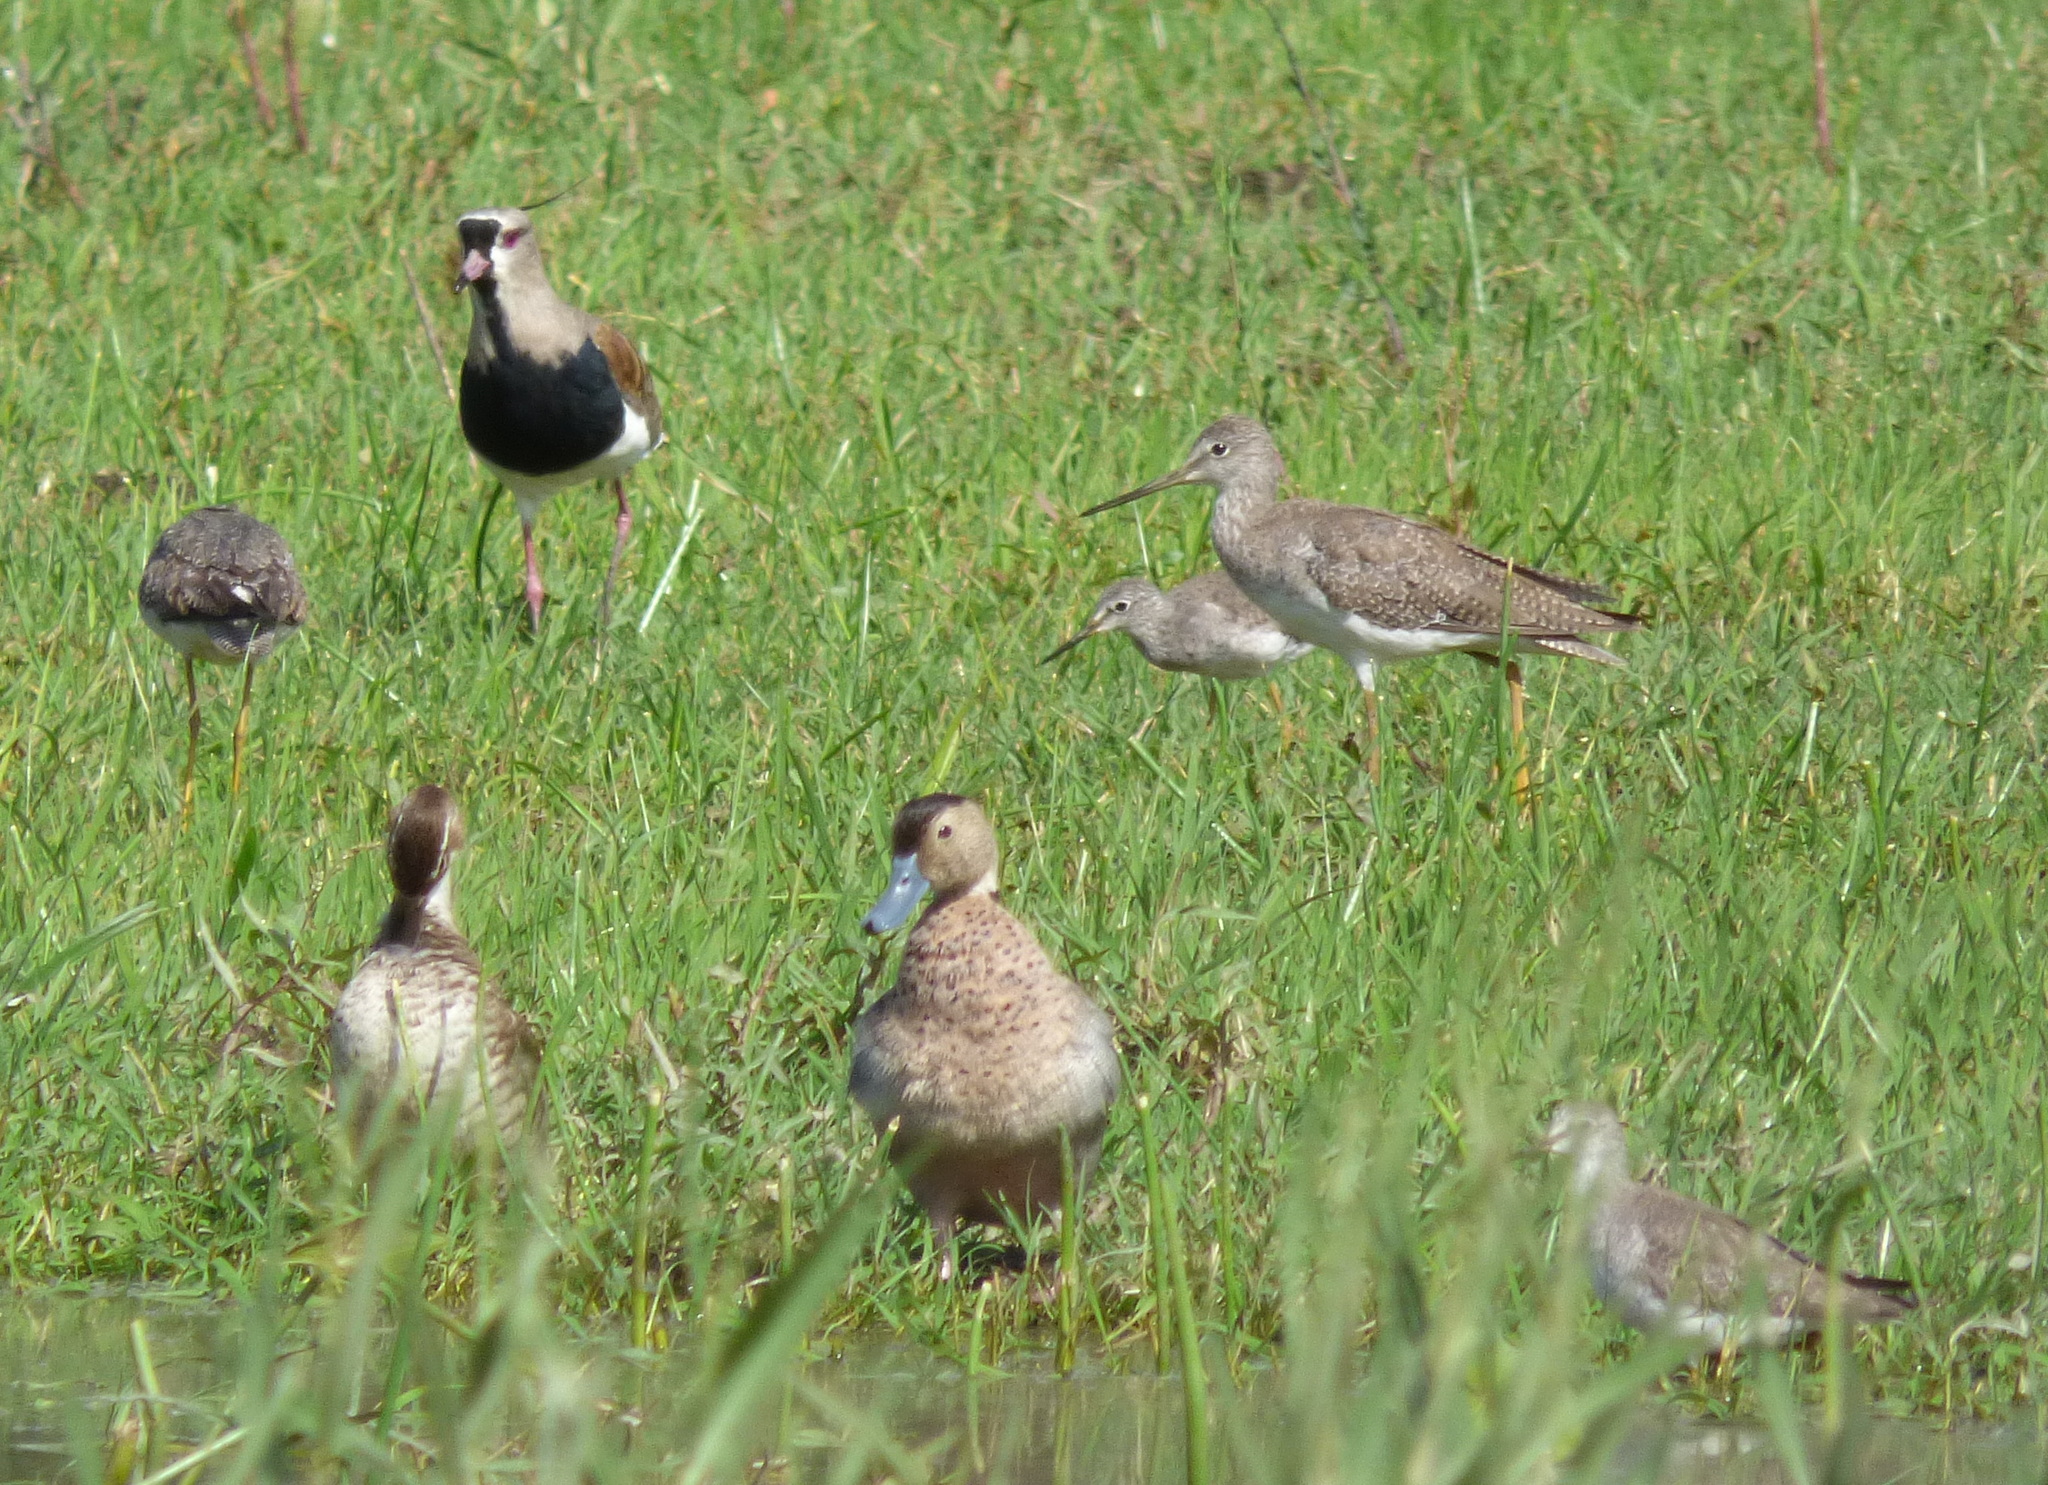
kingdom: Animalia
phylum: Chordata
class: Aves
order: Charadriiformes
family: Scolopacidae
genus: Tringa
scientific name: Tringa melanoleuca
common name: Greater yellowlegs
